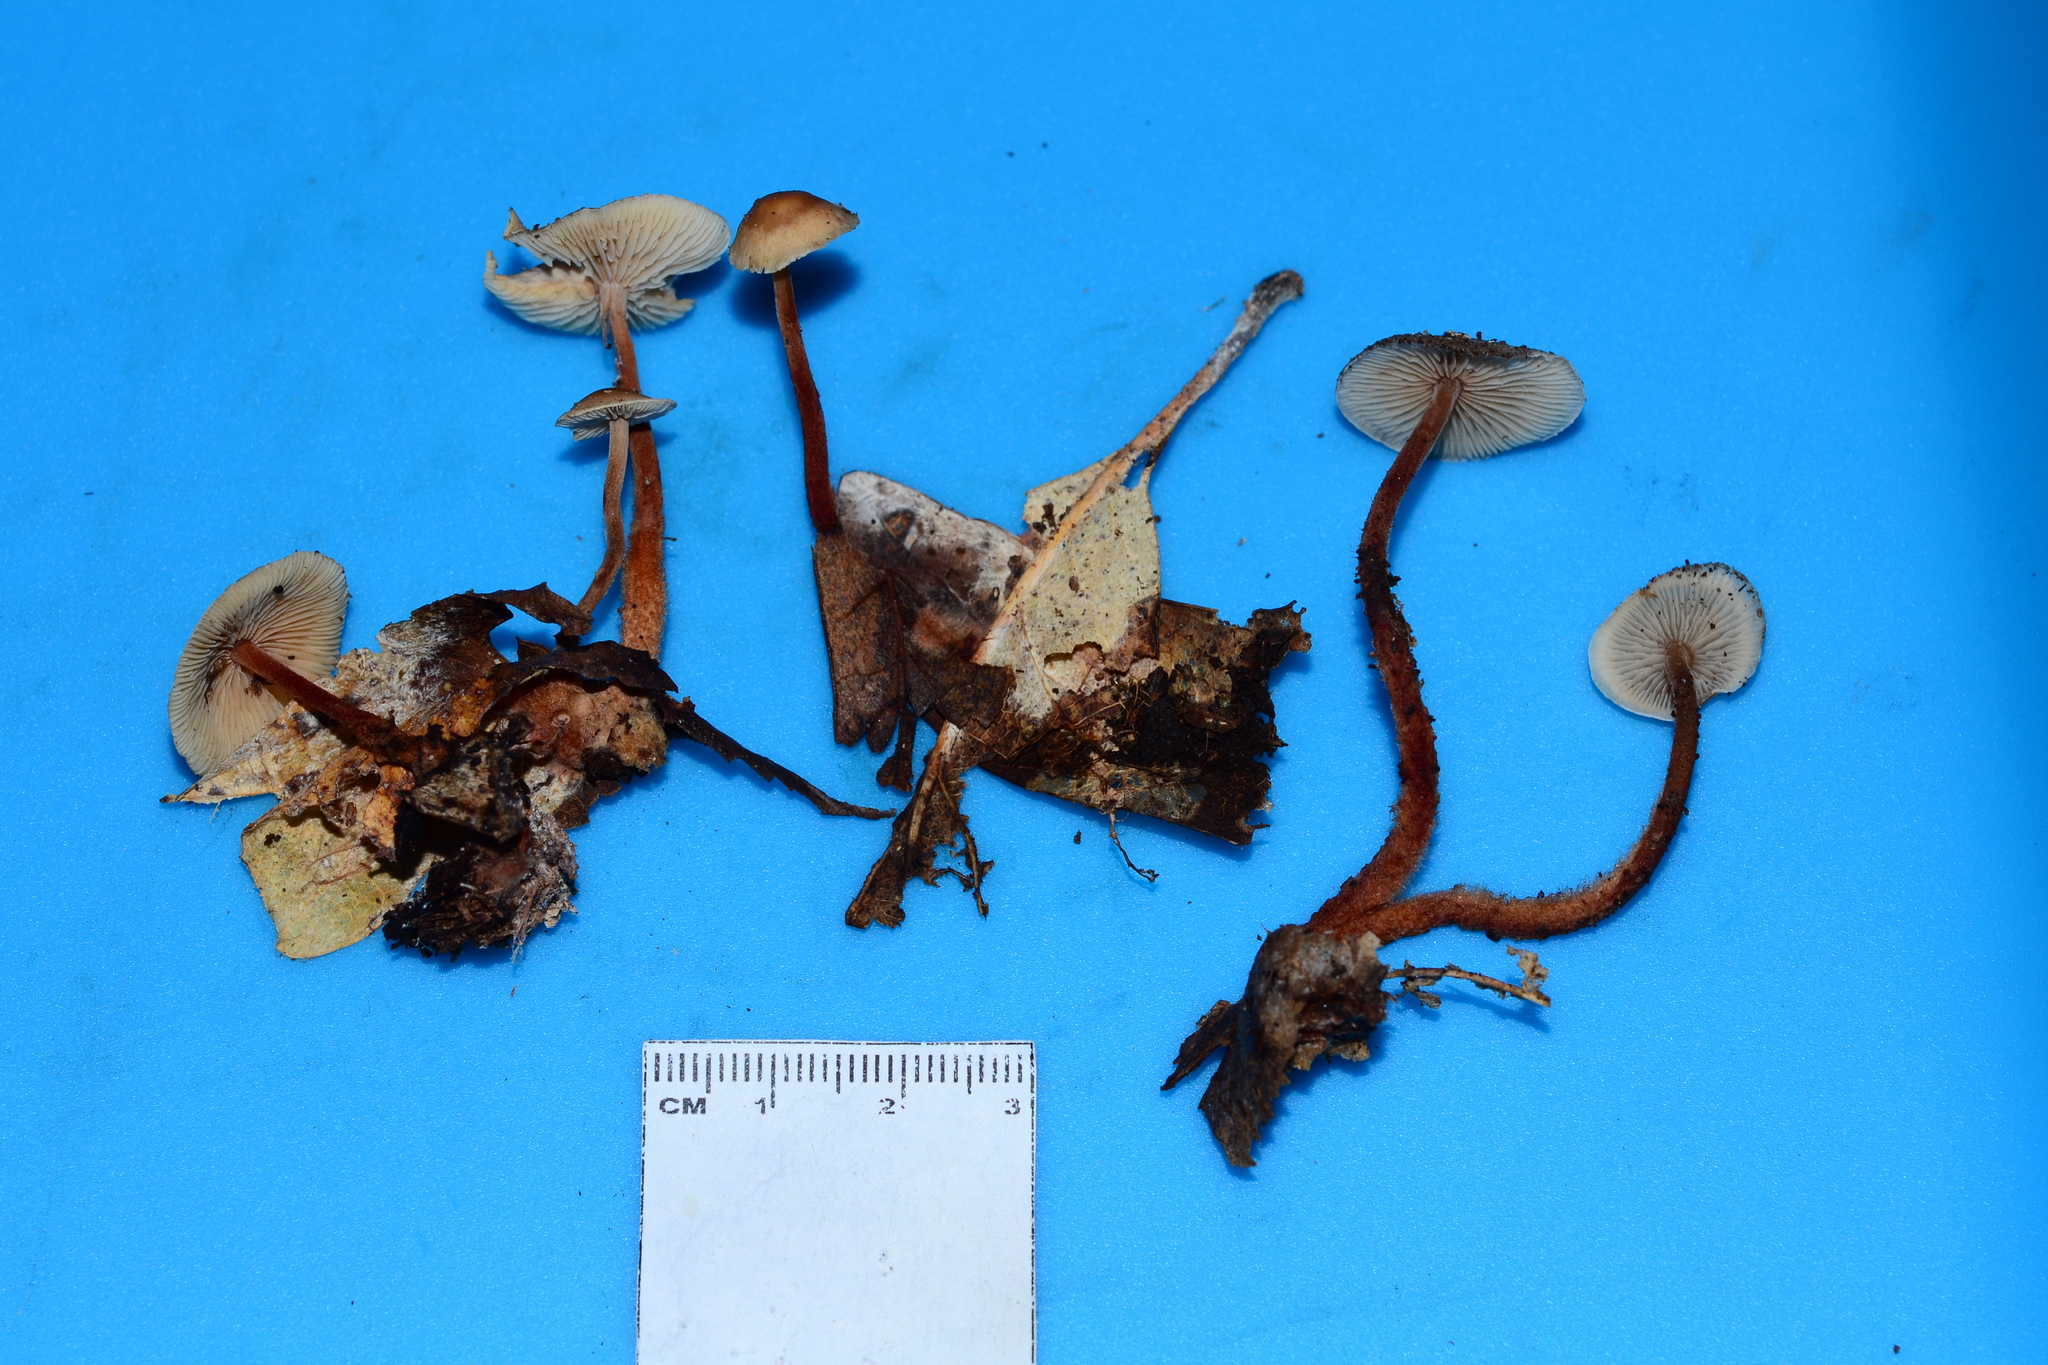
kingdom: Fungi
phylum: Basidiomycota
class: Agaricomycetes
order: Agaricales
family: Omphalotaceae
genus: Gymnopus
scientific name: Gymnopus spongiosus
